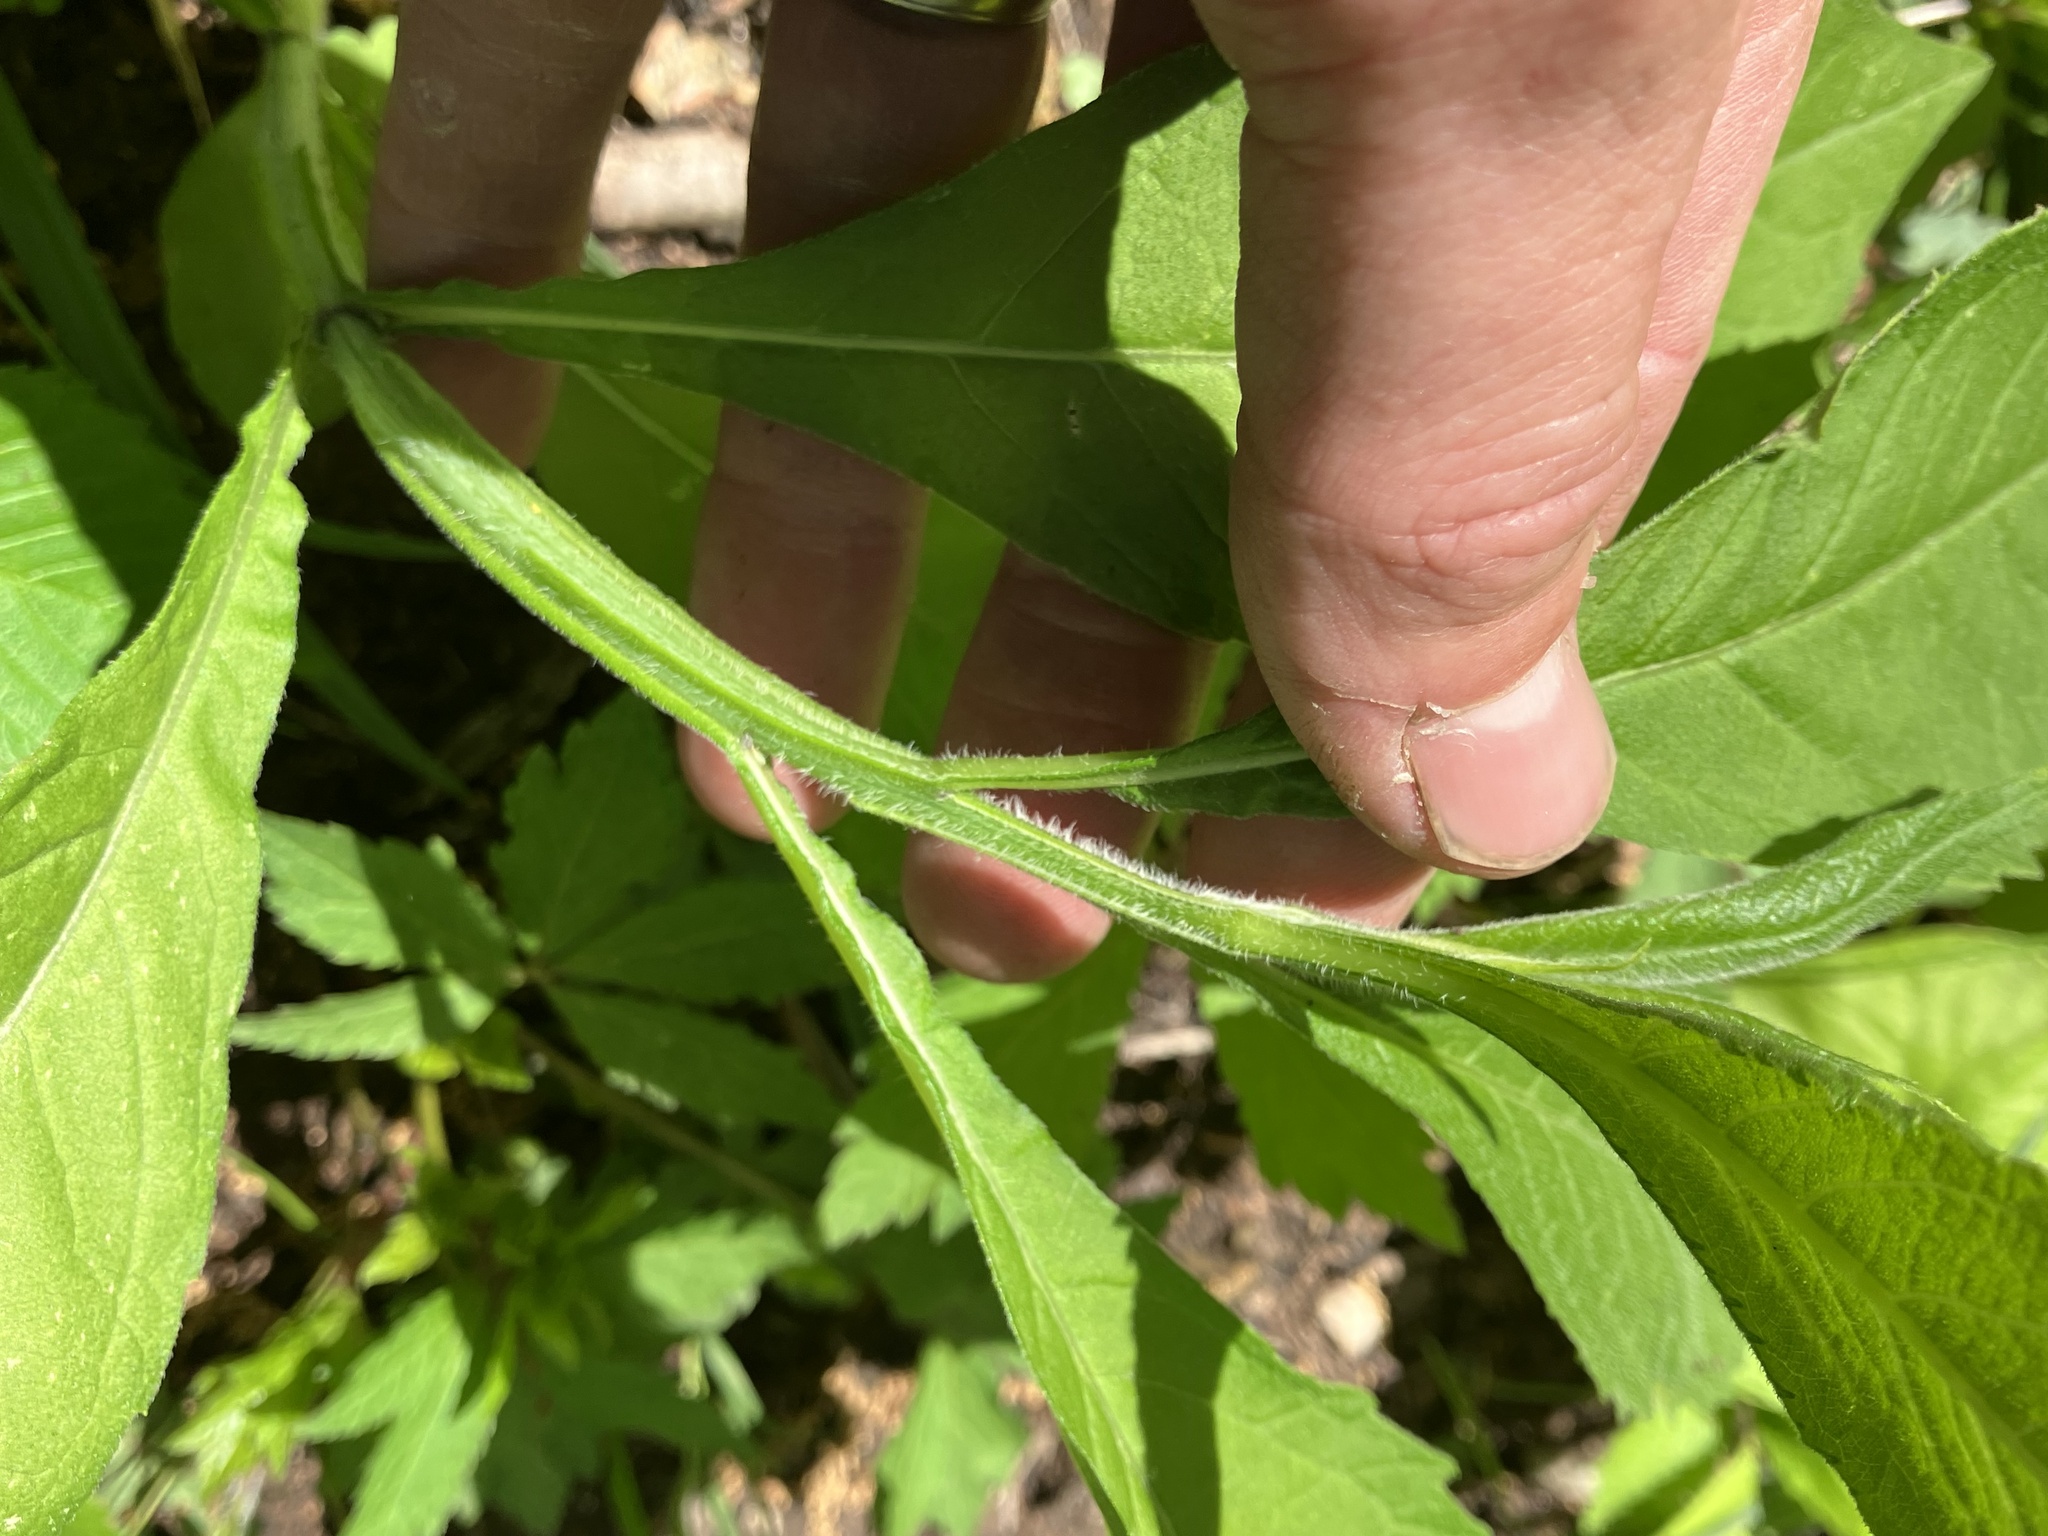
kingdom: Plantae
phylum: Tracheophyta
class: Magnoliopsida
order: Asterales
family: Asteraceae
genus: Verbesina
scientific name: Verbesina alternifolia
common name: Wingstem
